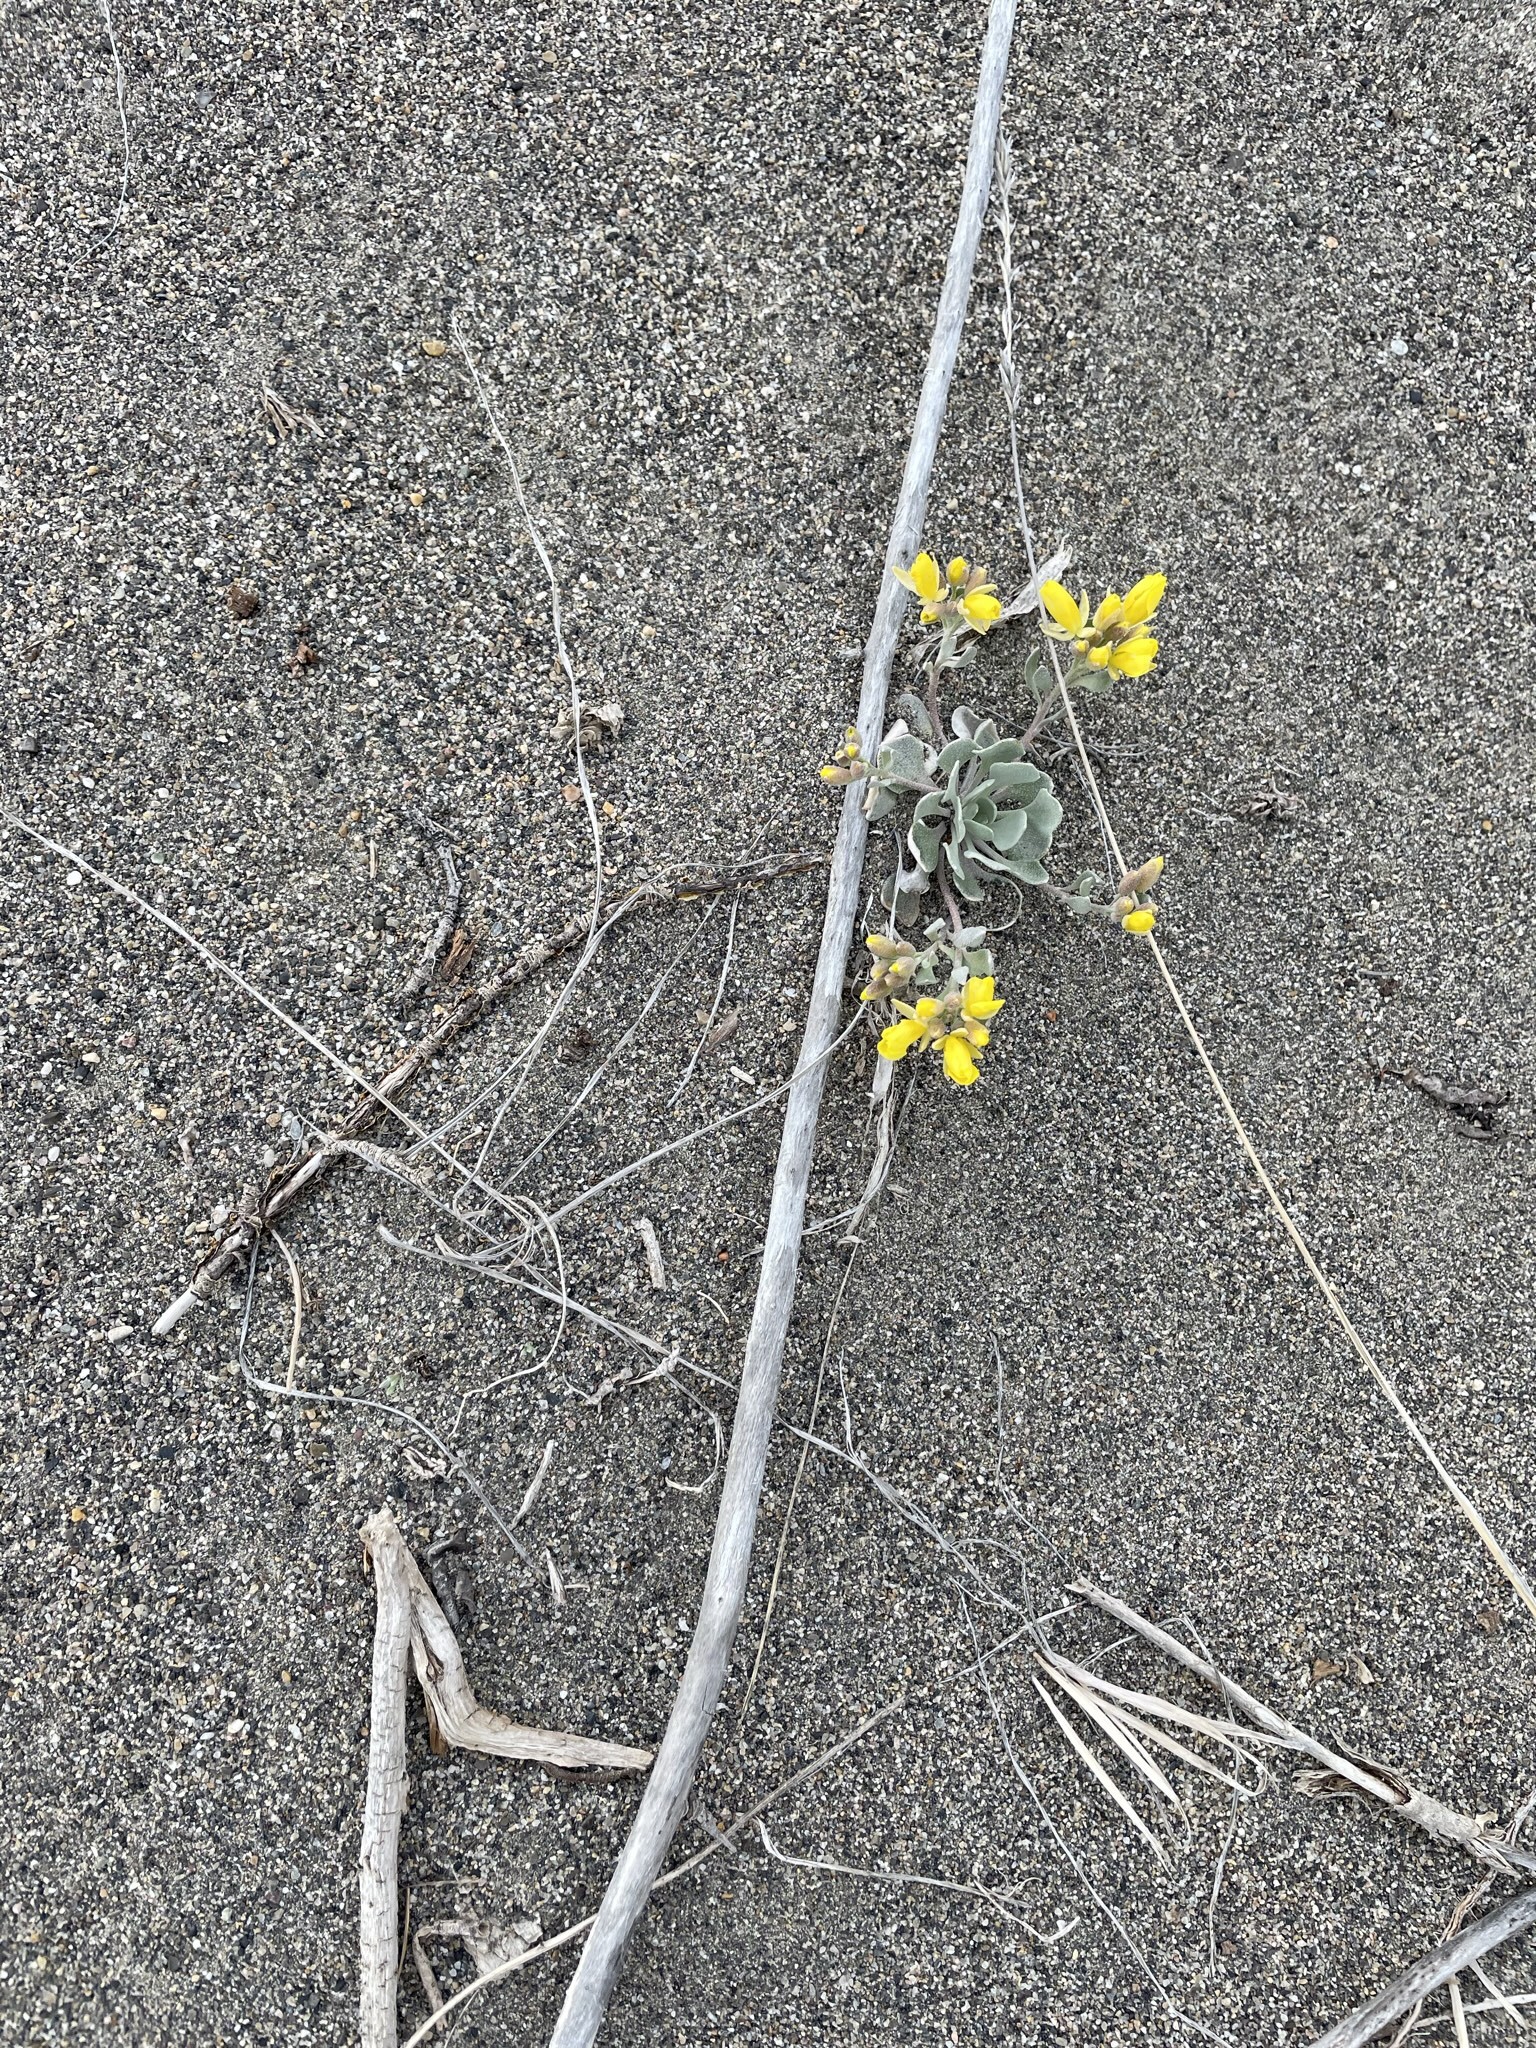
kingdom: Plantae
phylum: Tracheophyta
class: Magnoliopsida
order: Brassicales
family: Brassicaceae
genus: Physaria
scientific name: Physaria didymocarpa
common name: Common twinpod
